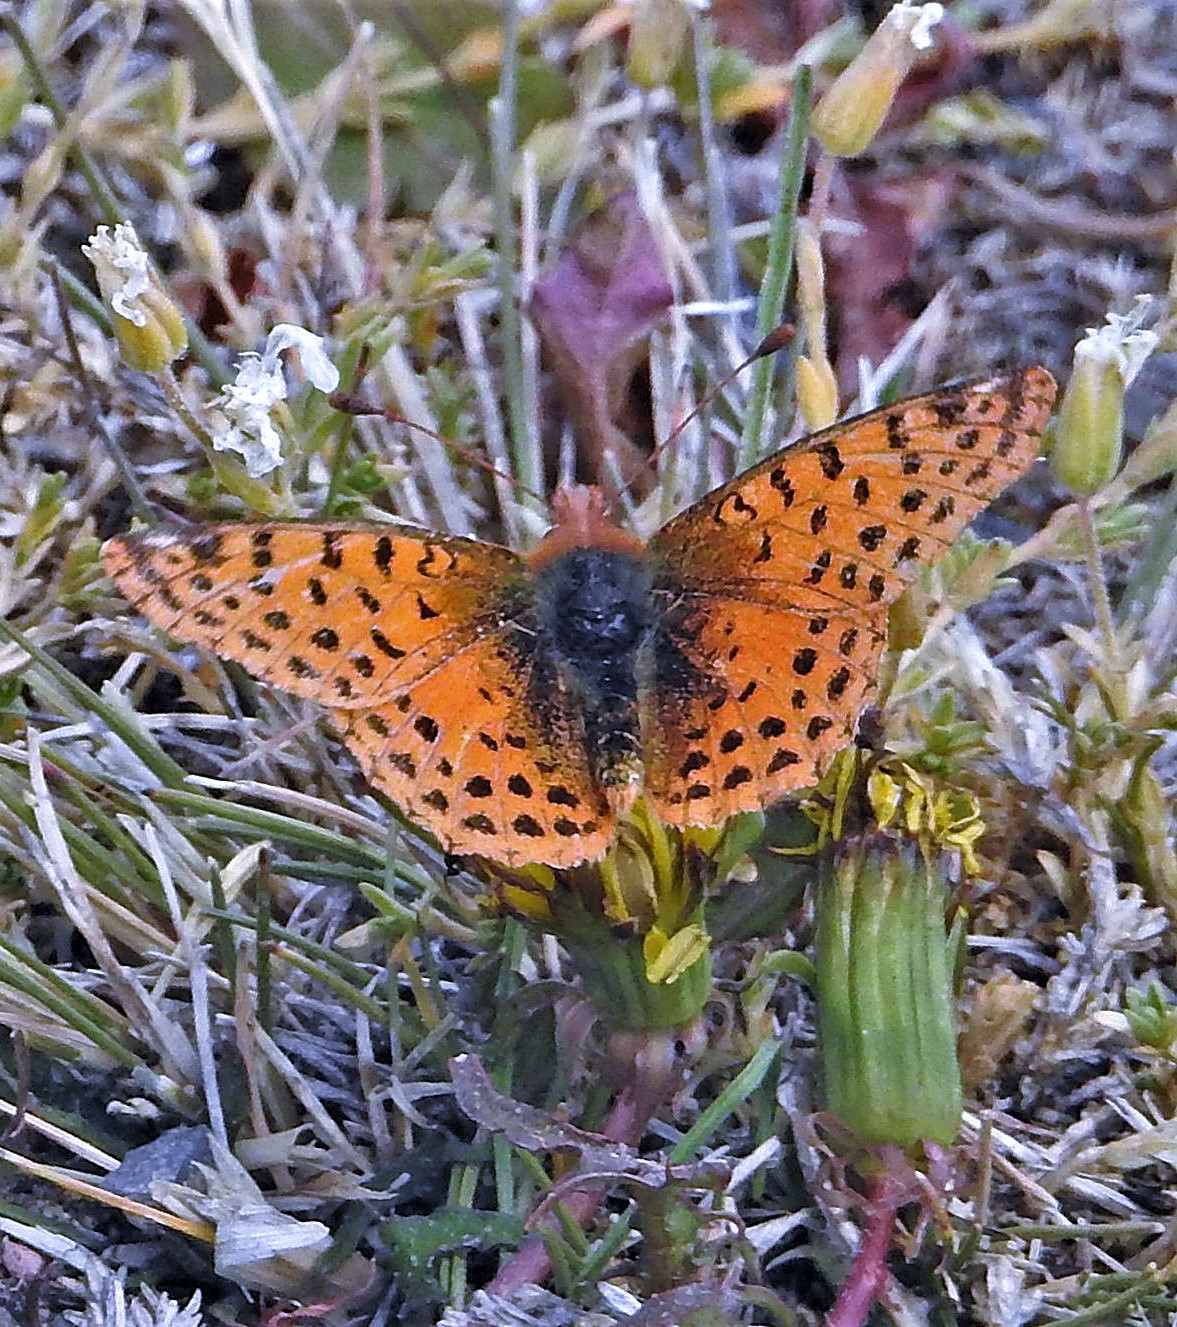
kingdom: Animalia
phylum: Arthropoda
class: Insecta
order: Lepidoptera
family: Nymphalidae
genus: Issoria
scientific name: Issoria Yramea cytheris
